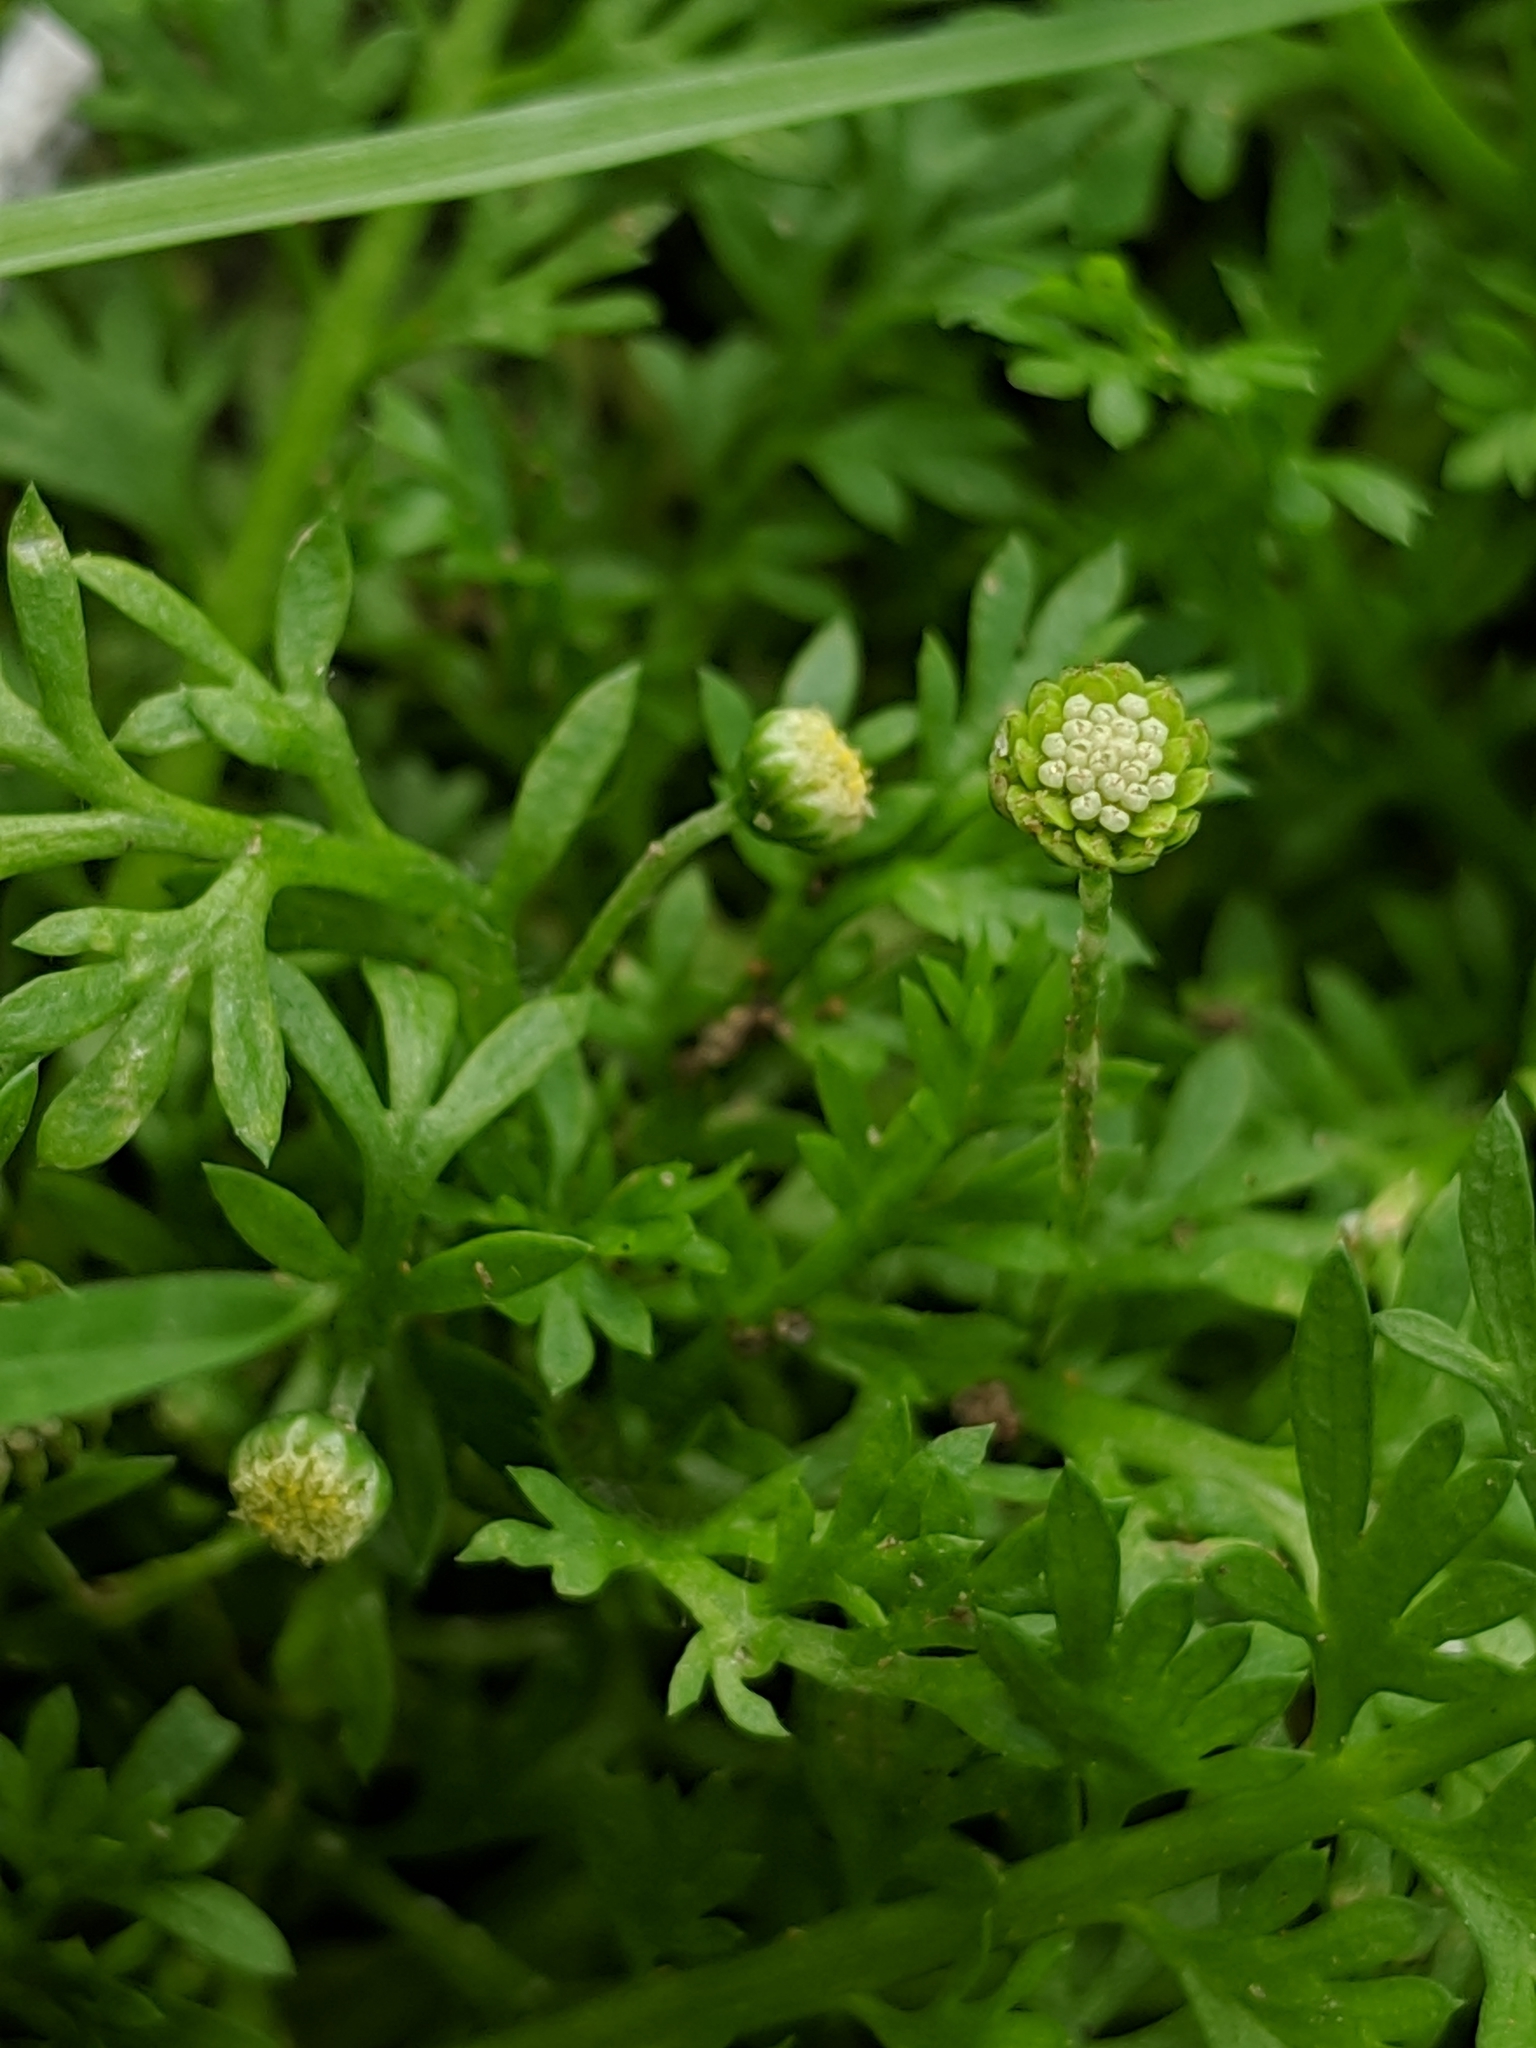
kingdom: Plantae
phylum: Tracheophyta
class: Magnoliopsida
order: Asterales
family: Asteraceae
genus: Cotula
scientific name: Cotula australis
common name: Australian waterbuttons
